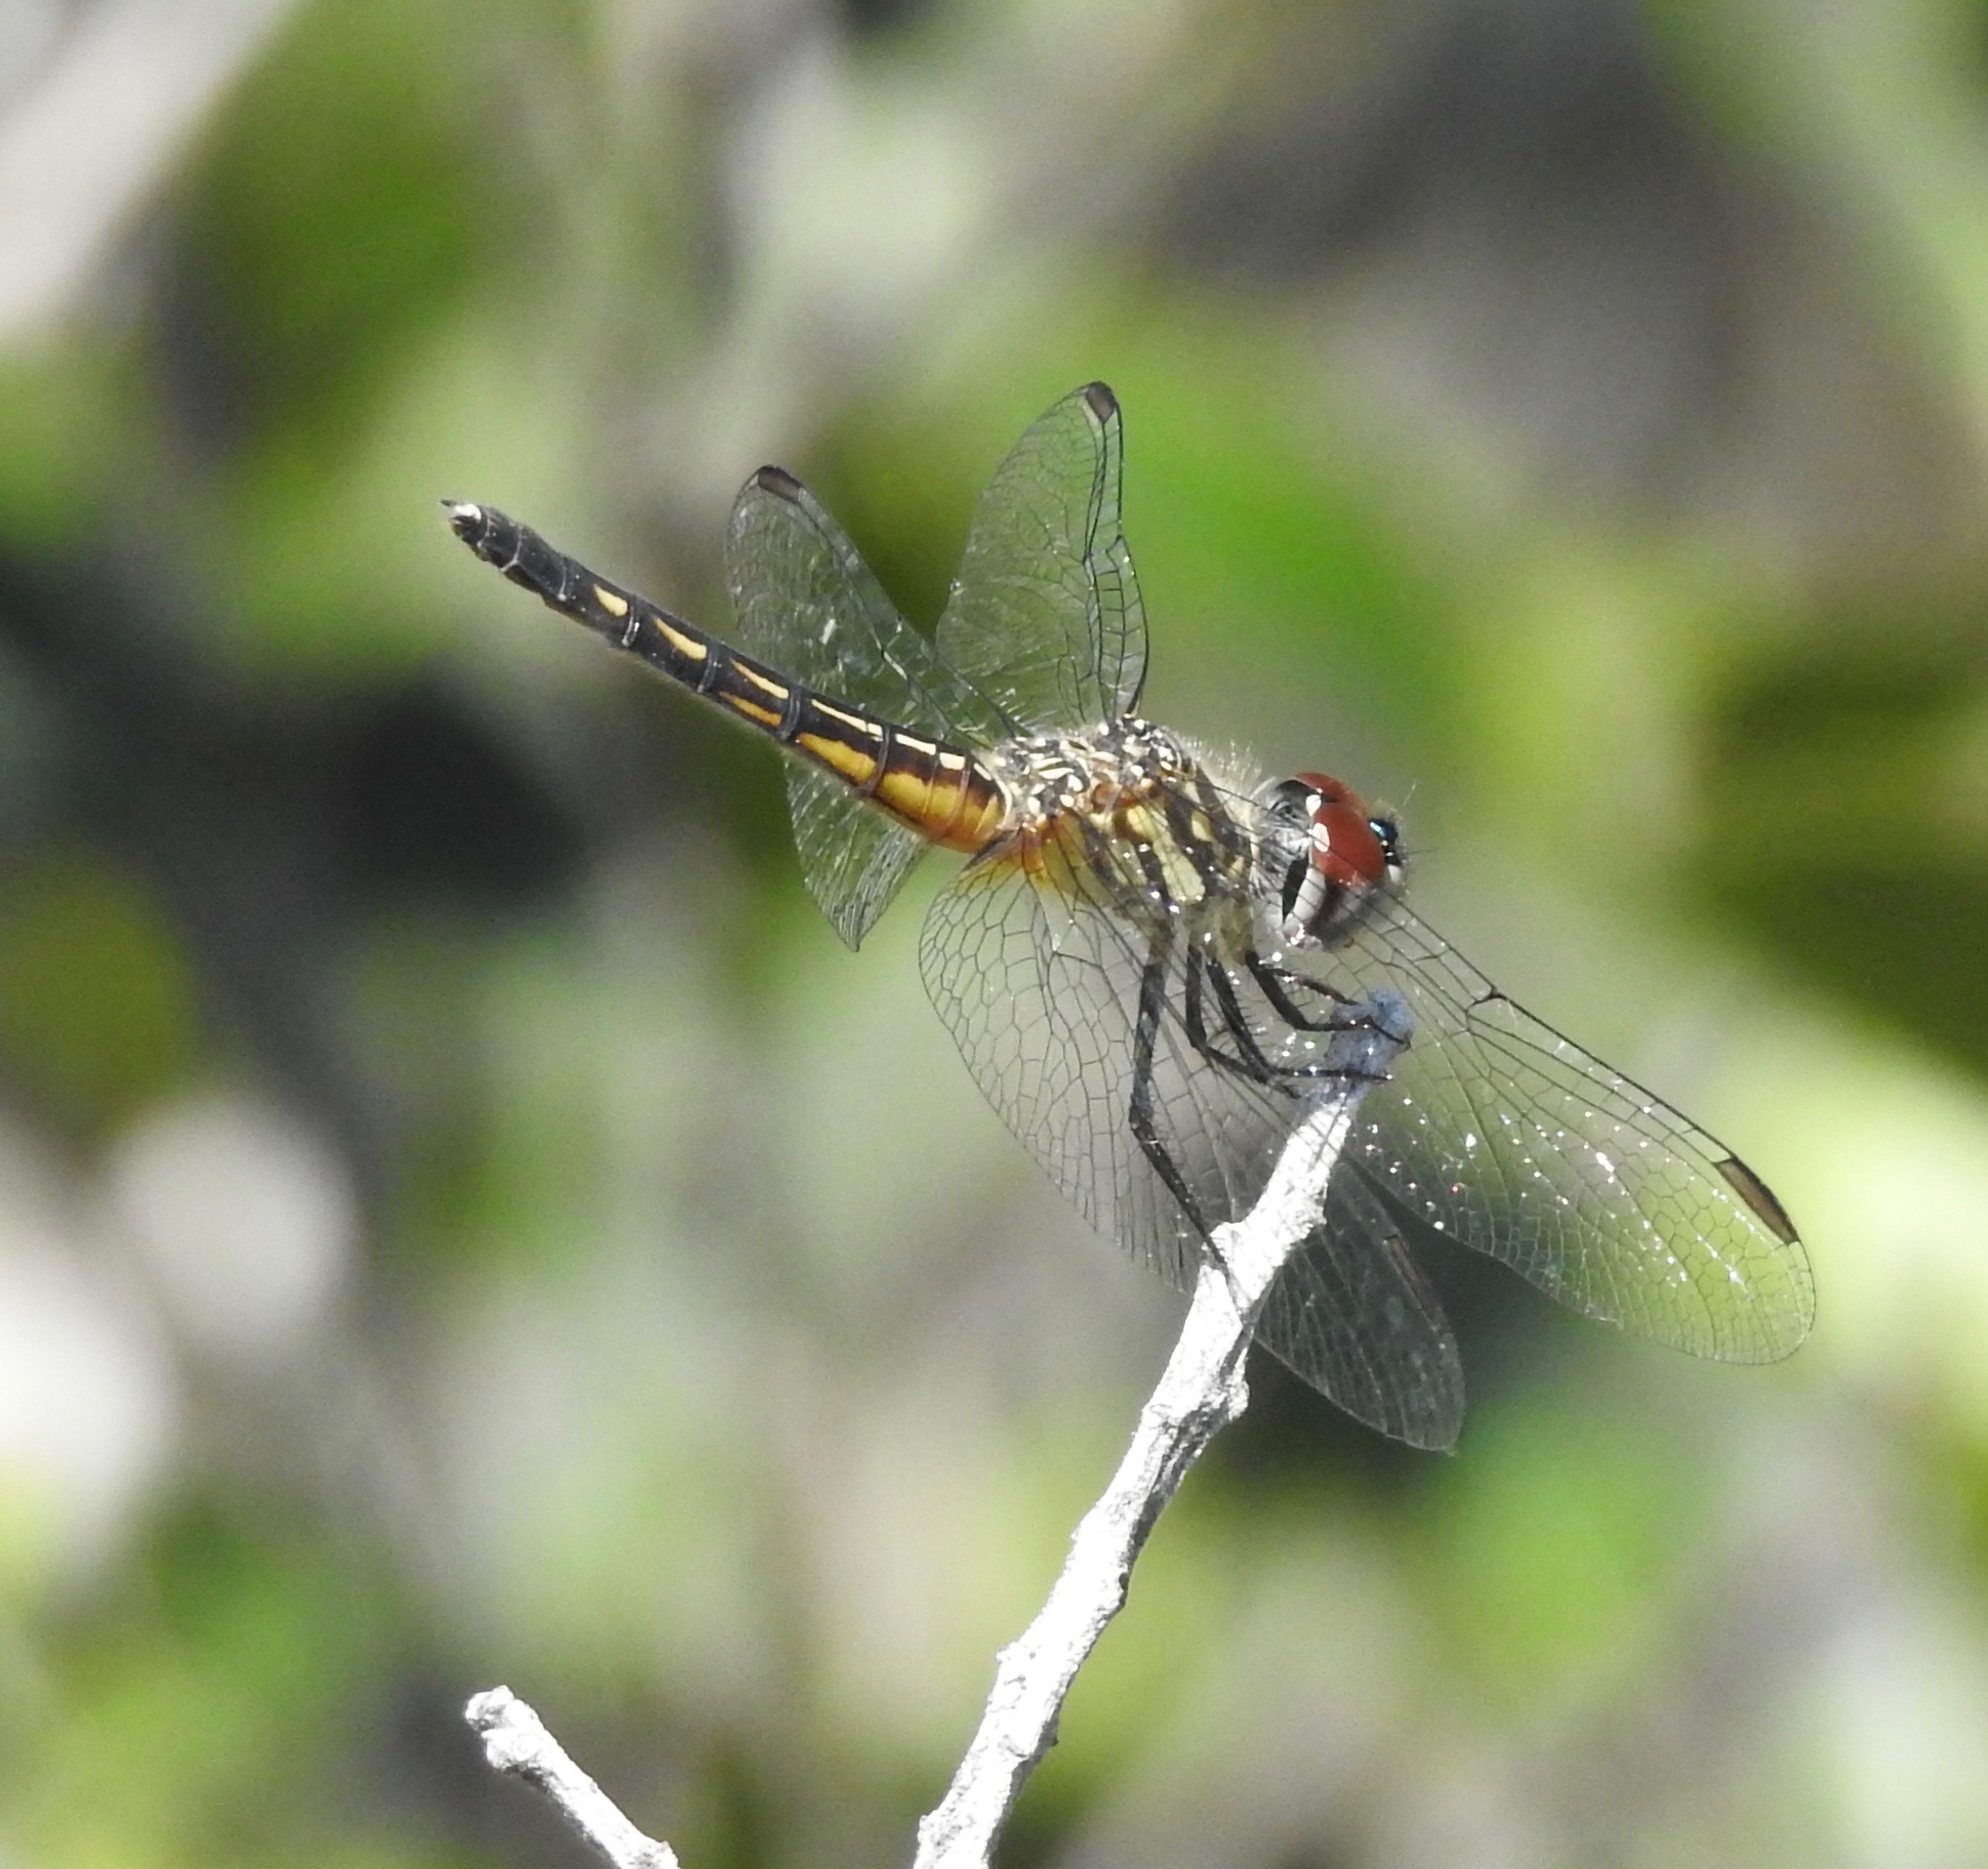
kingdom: Animalia
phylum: Arthropoda
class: Insecta
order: Odonata
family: Libellulidae
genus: Pachydiplax
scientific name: Pachydiplax longipennis
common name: Blue dasher
